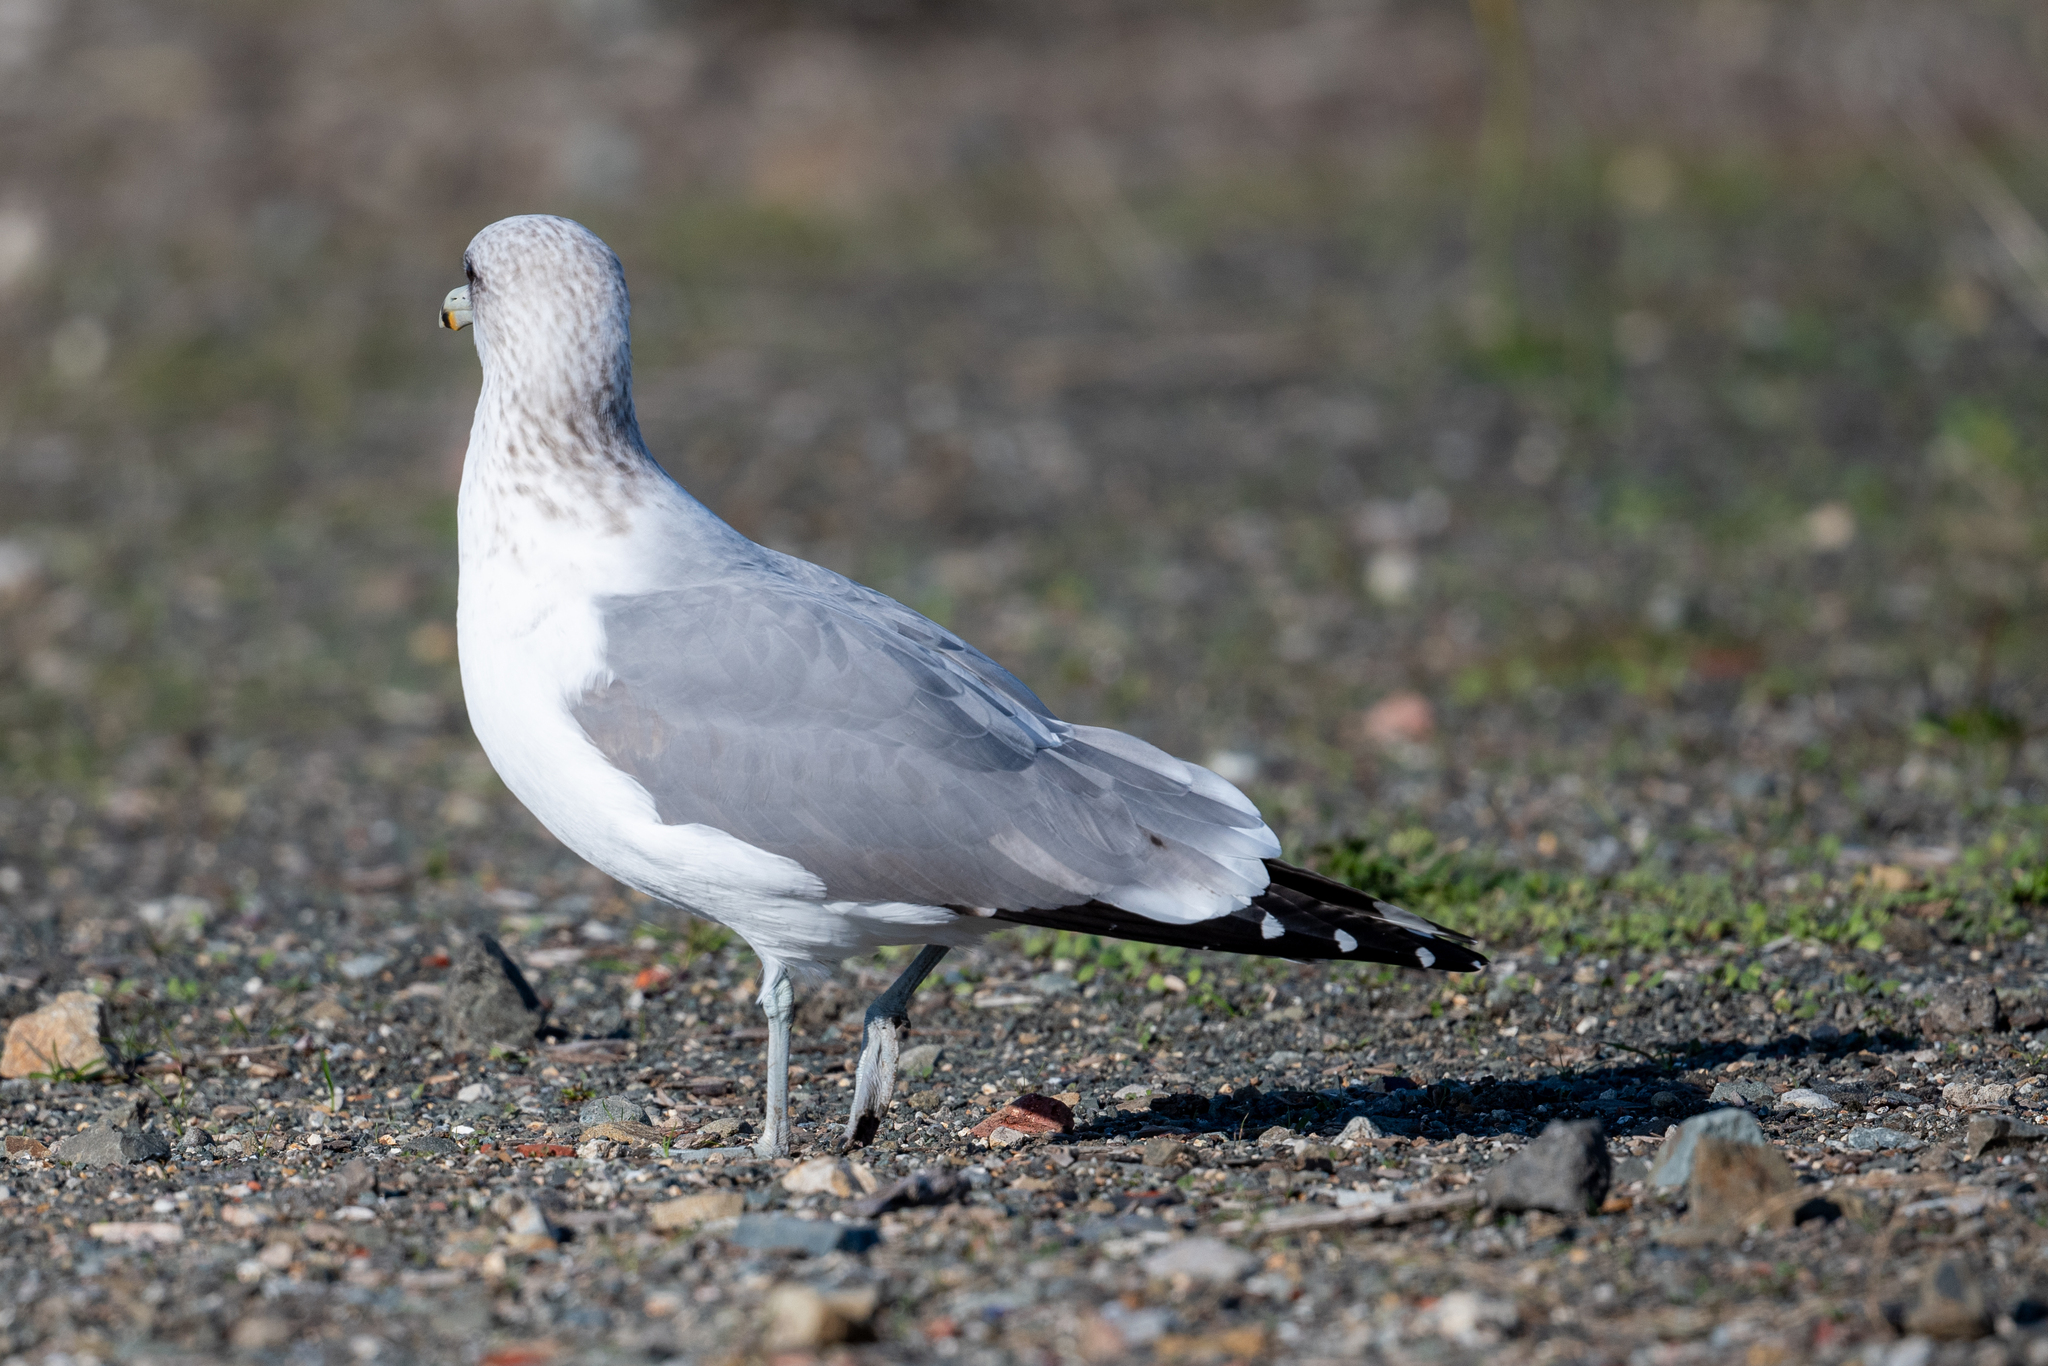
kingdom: Animalia
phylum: Chordata
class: Aves
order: Charadriiformes
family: Laridae
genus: Larus
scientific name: Larus californicus
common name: California gull
